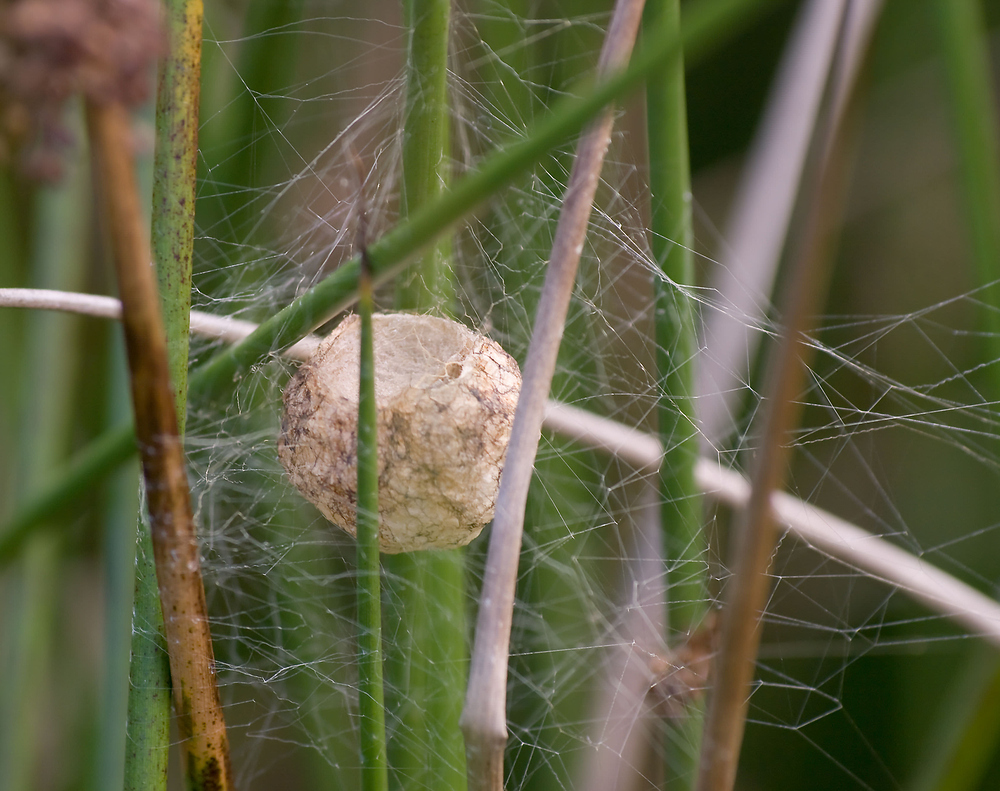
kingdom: Animalia
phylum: Arthropoda
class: Arachnida
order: Araneae
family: Araneidae
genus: Argiope
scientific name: Argiope bruennichi
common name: Wasp spider
